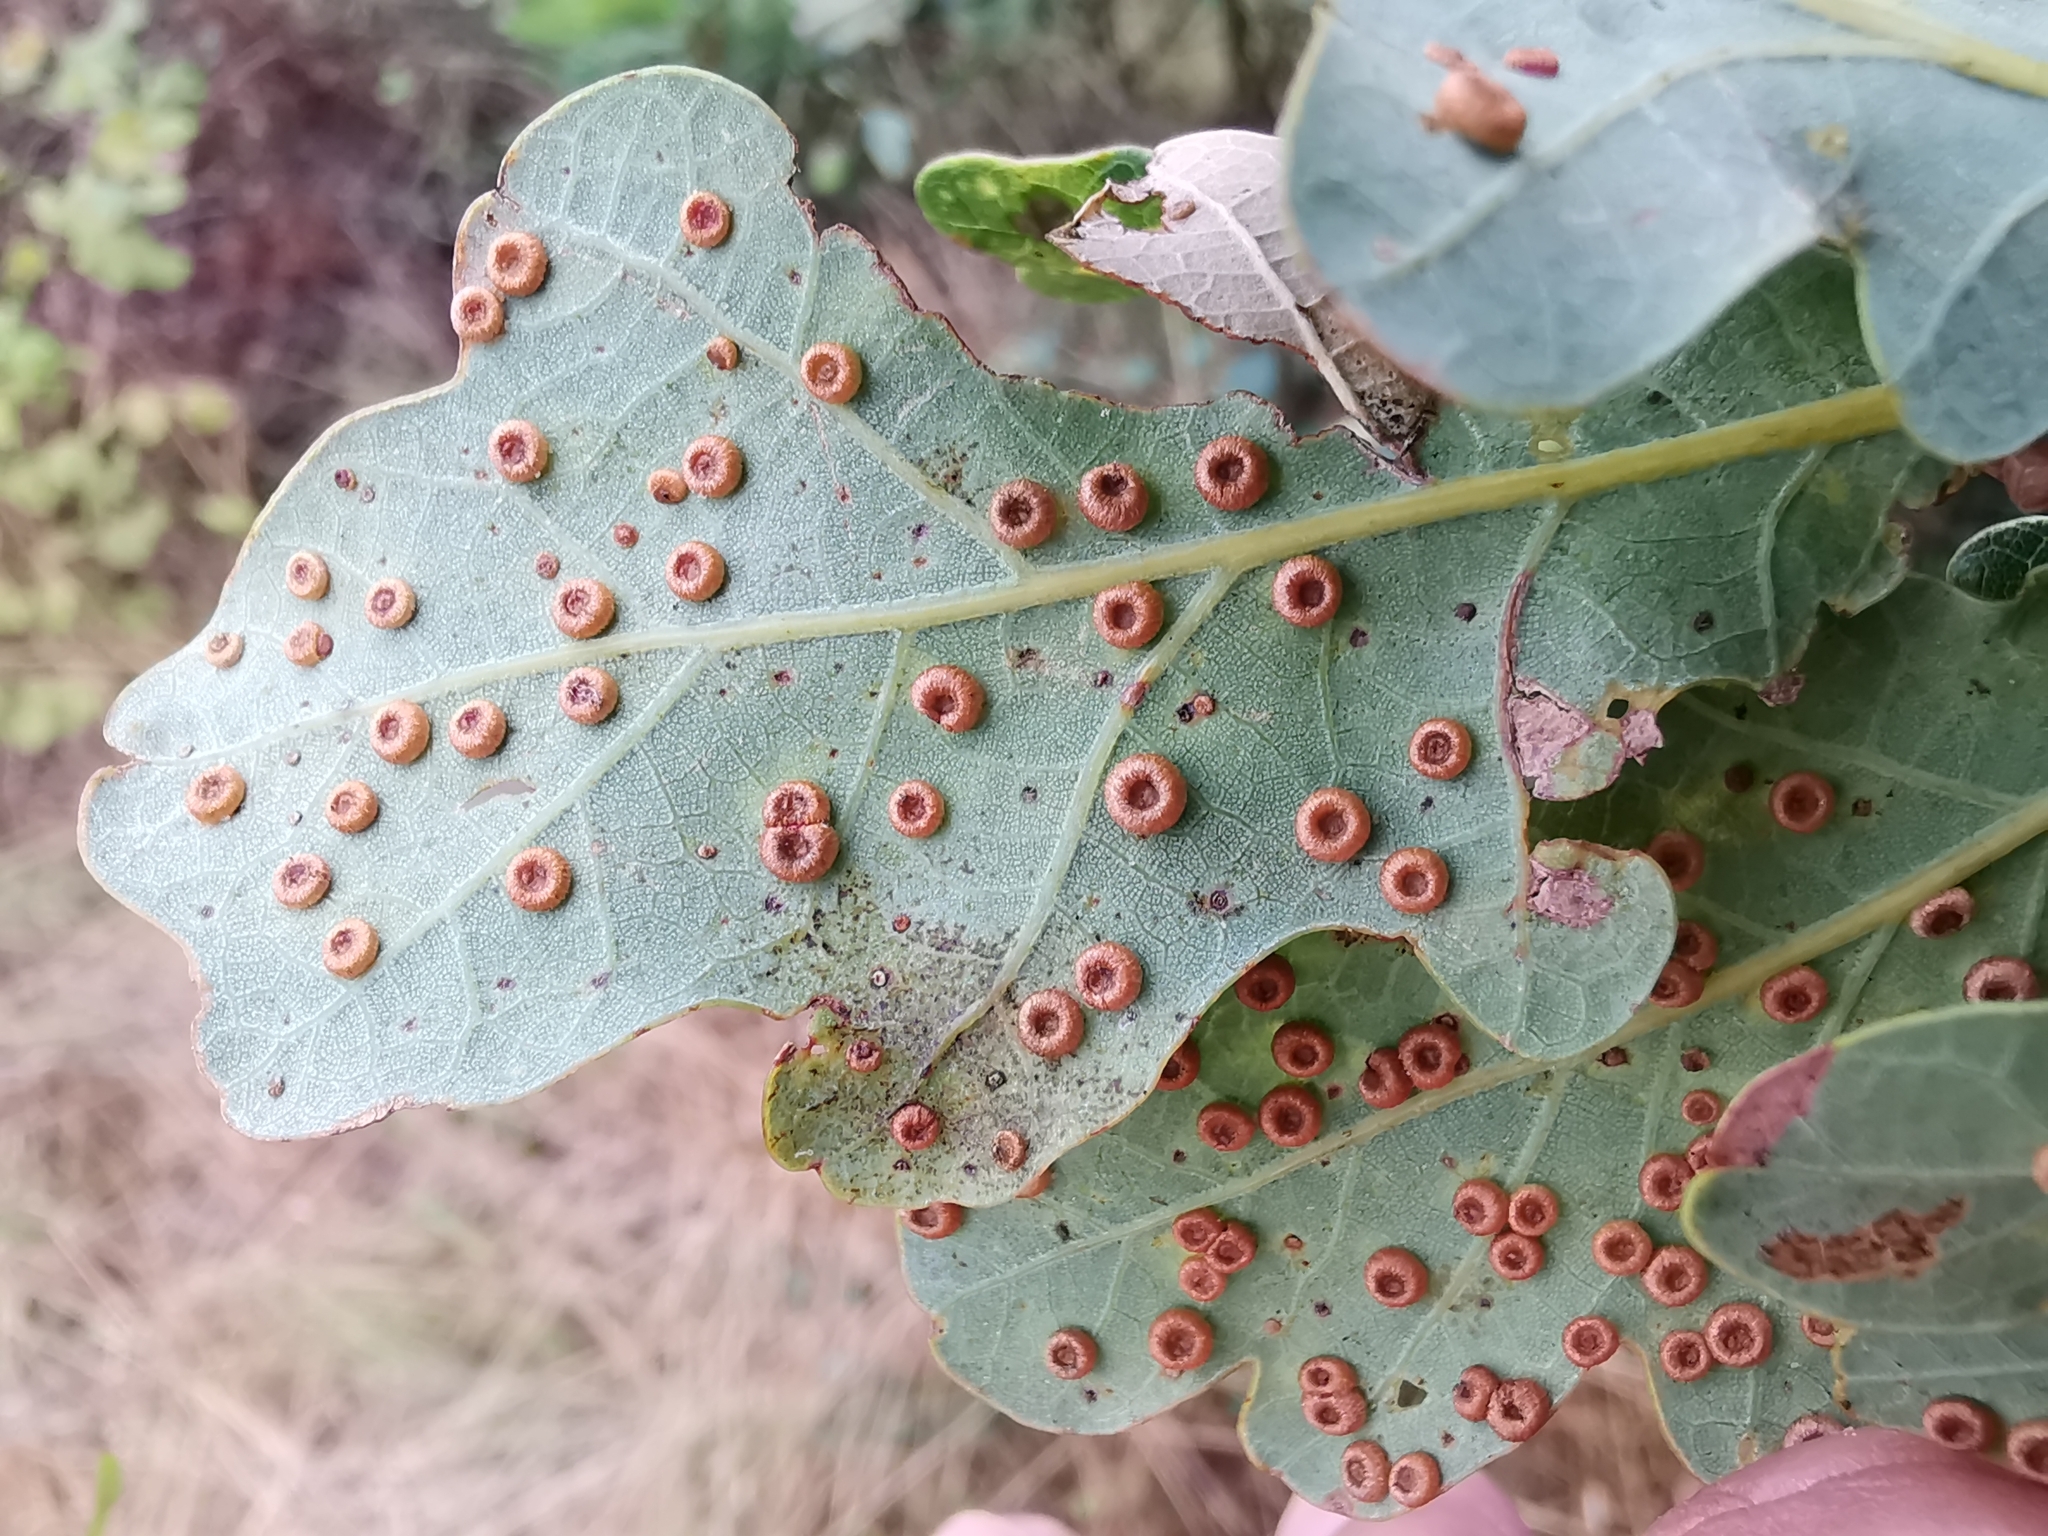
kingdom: Animalia
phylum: Arthropoda
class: Insecta
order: Hymenoptera
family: Cynipidae
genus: Neuroterus
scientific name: Neuroterus numismalis
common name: Silk-button spangle gall
